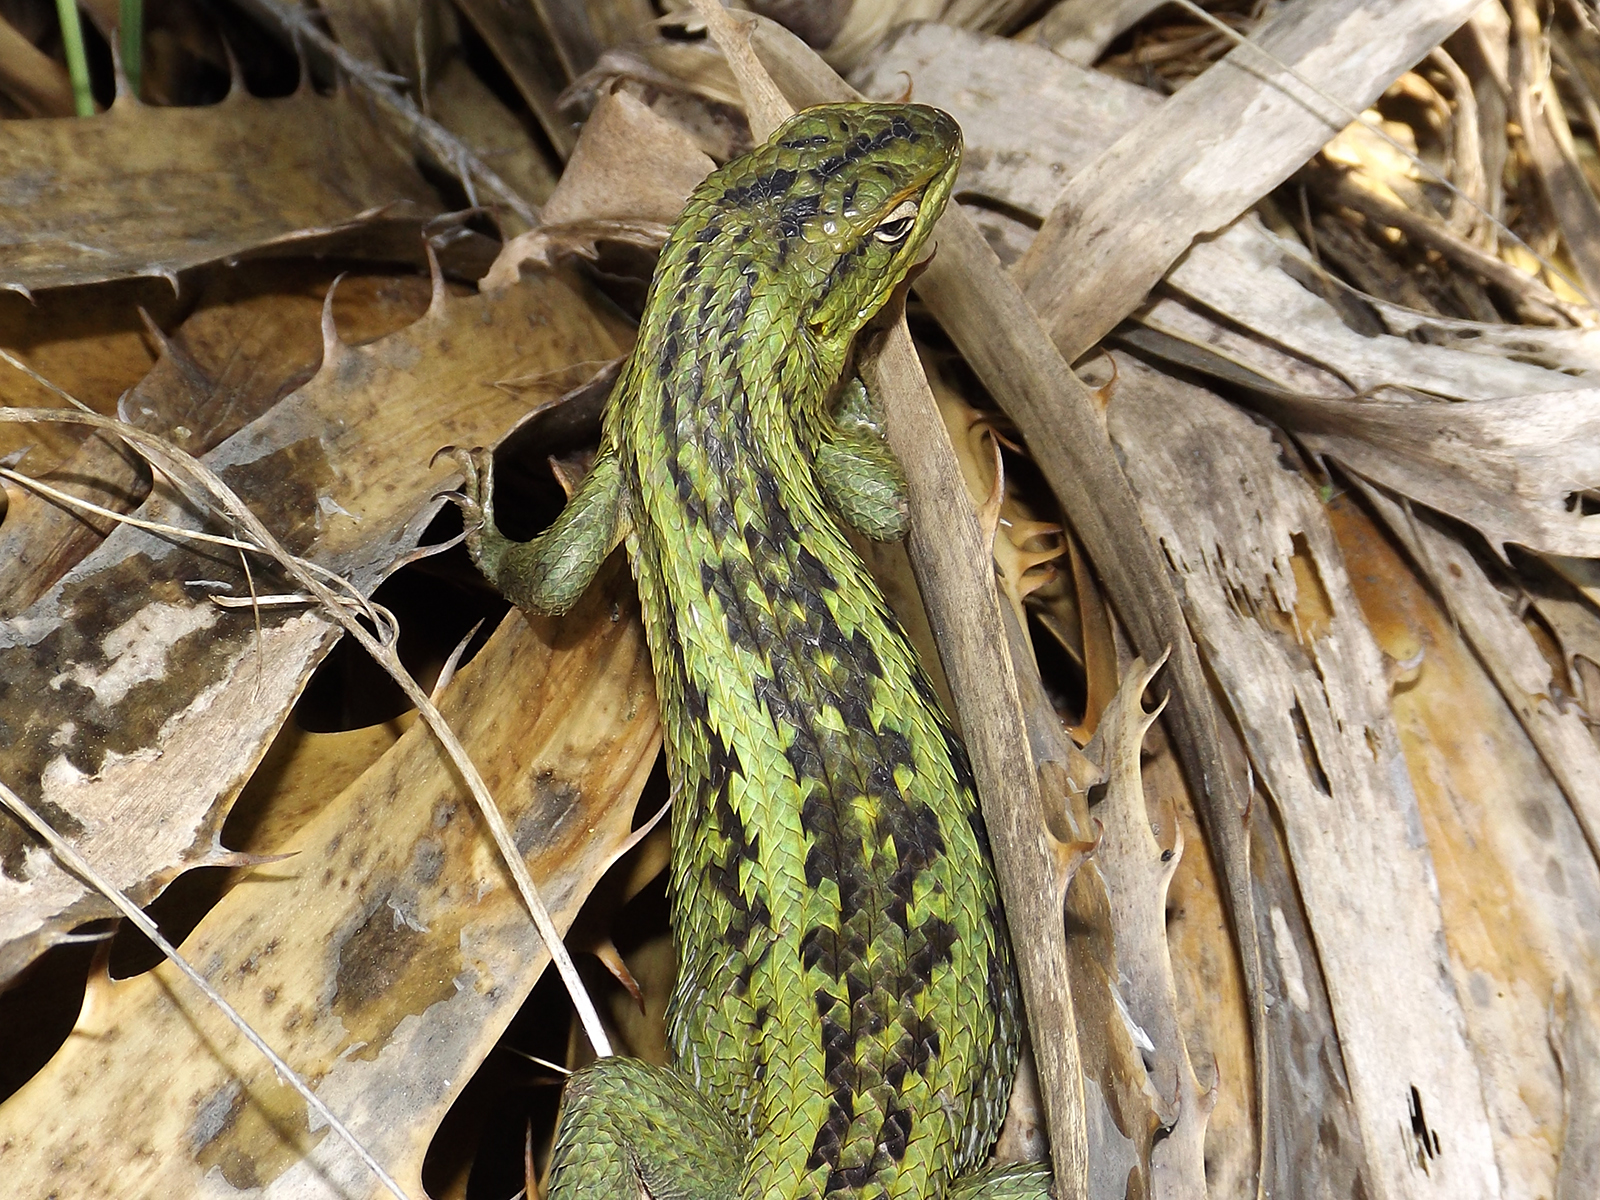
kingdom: Animalia
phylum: Chordata
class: Squamata
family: Liolaemidae
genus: Liolaemus
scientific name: Liolaemus chiliensis
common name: Chilean tree iguana
